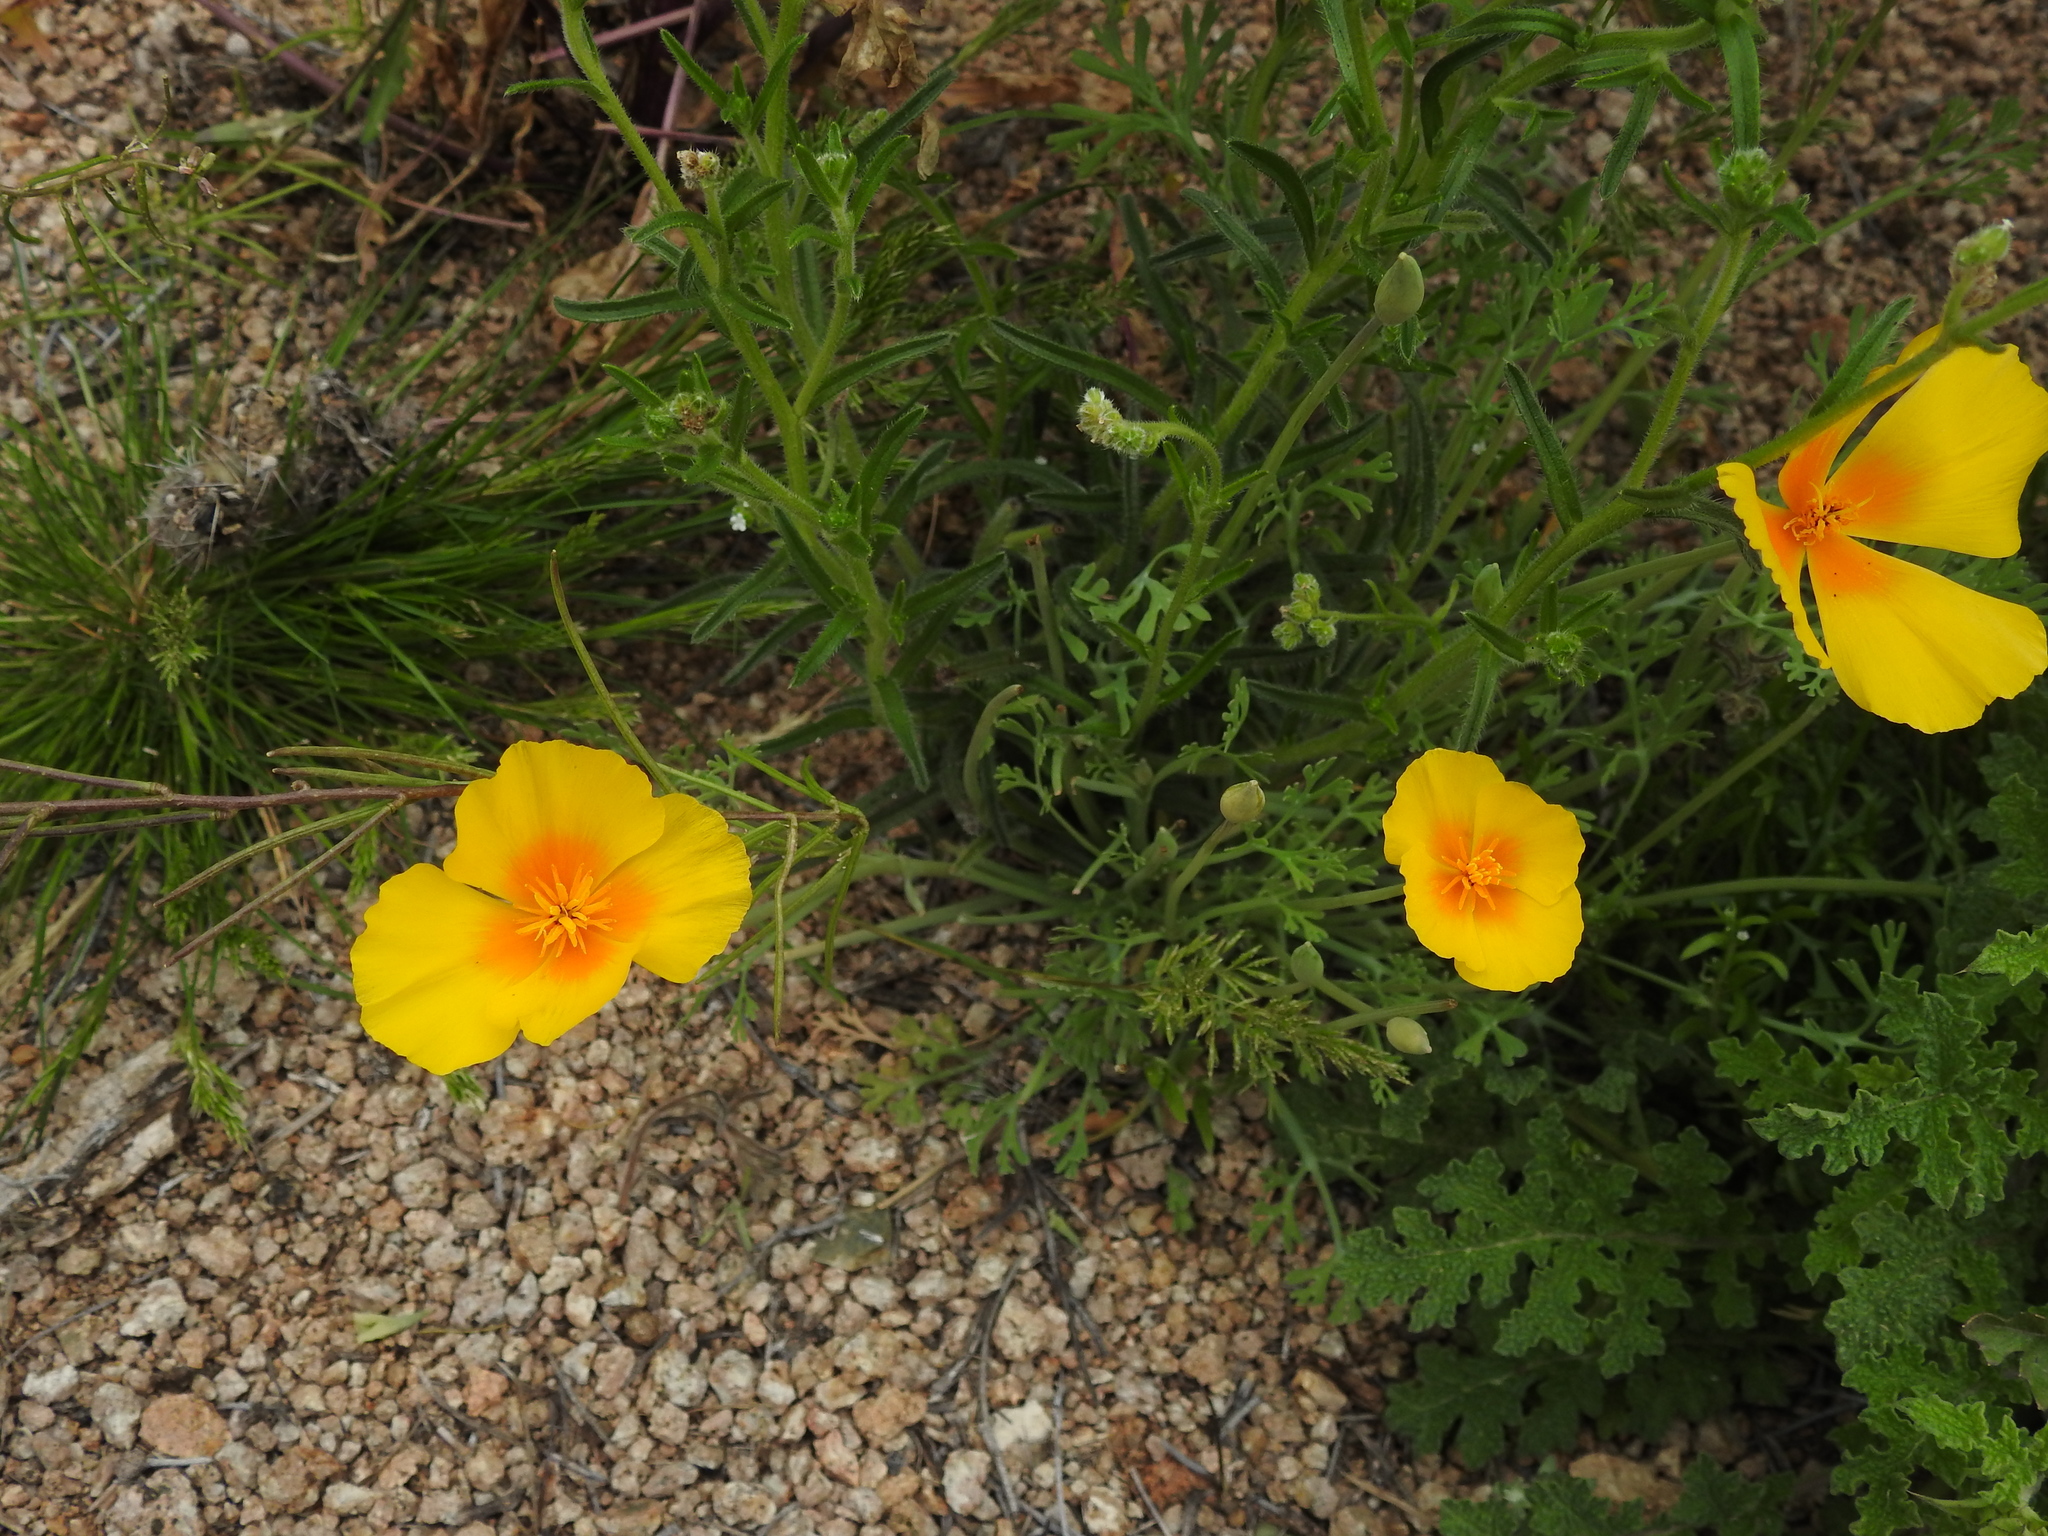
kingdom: Plantae
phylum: Tracheophyta
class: Magnoliopsida
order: Ranunculales
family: Papaveraceae
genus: Eschscholzia
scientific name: Eschscholzia californica
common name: California poppy
